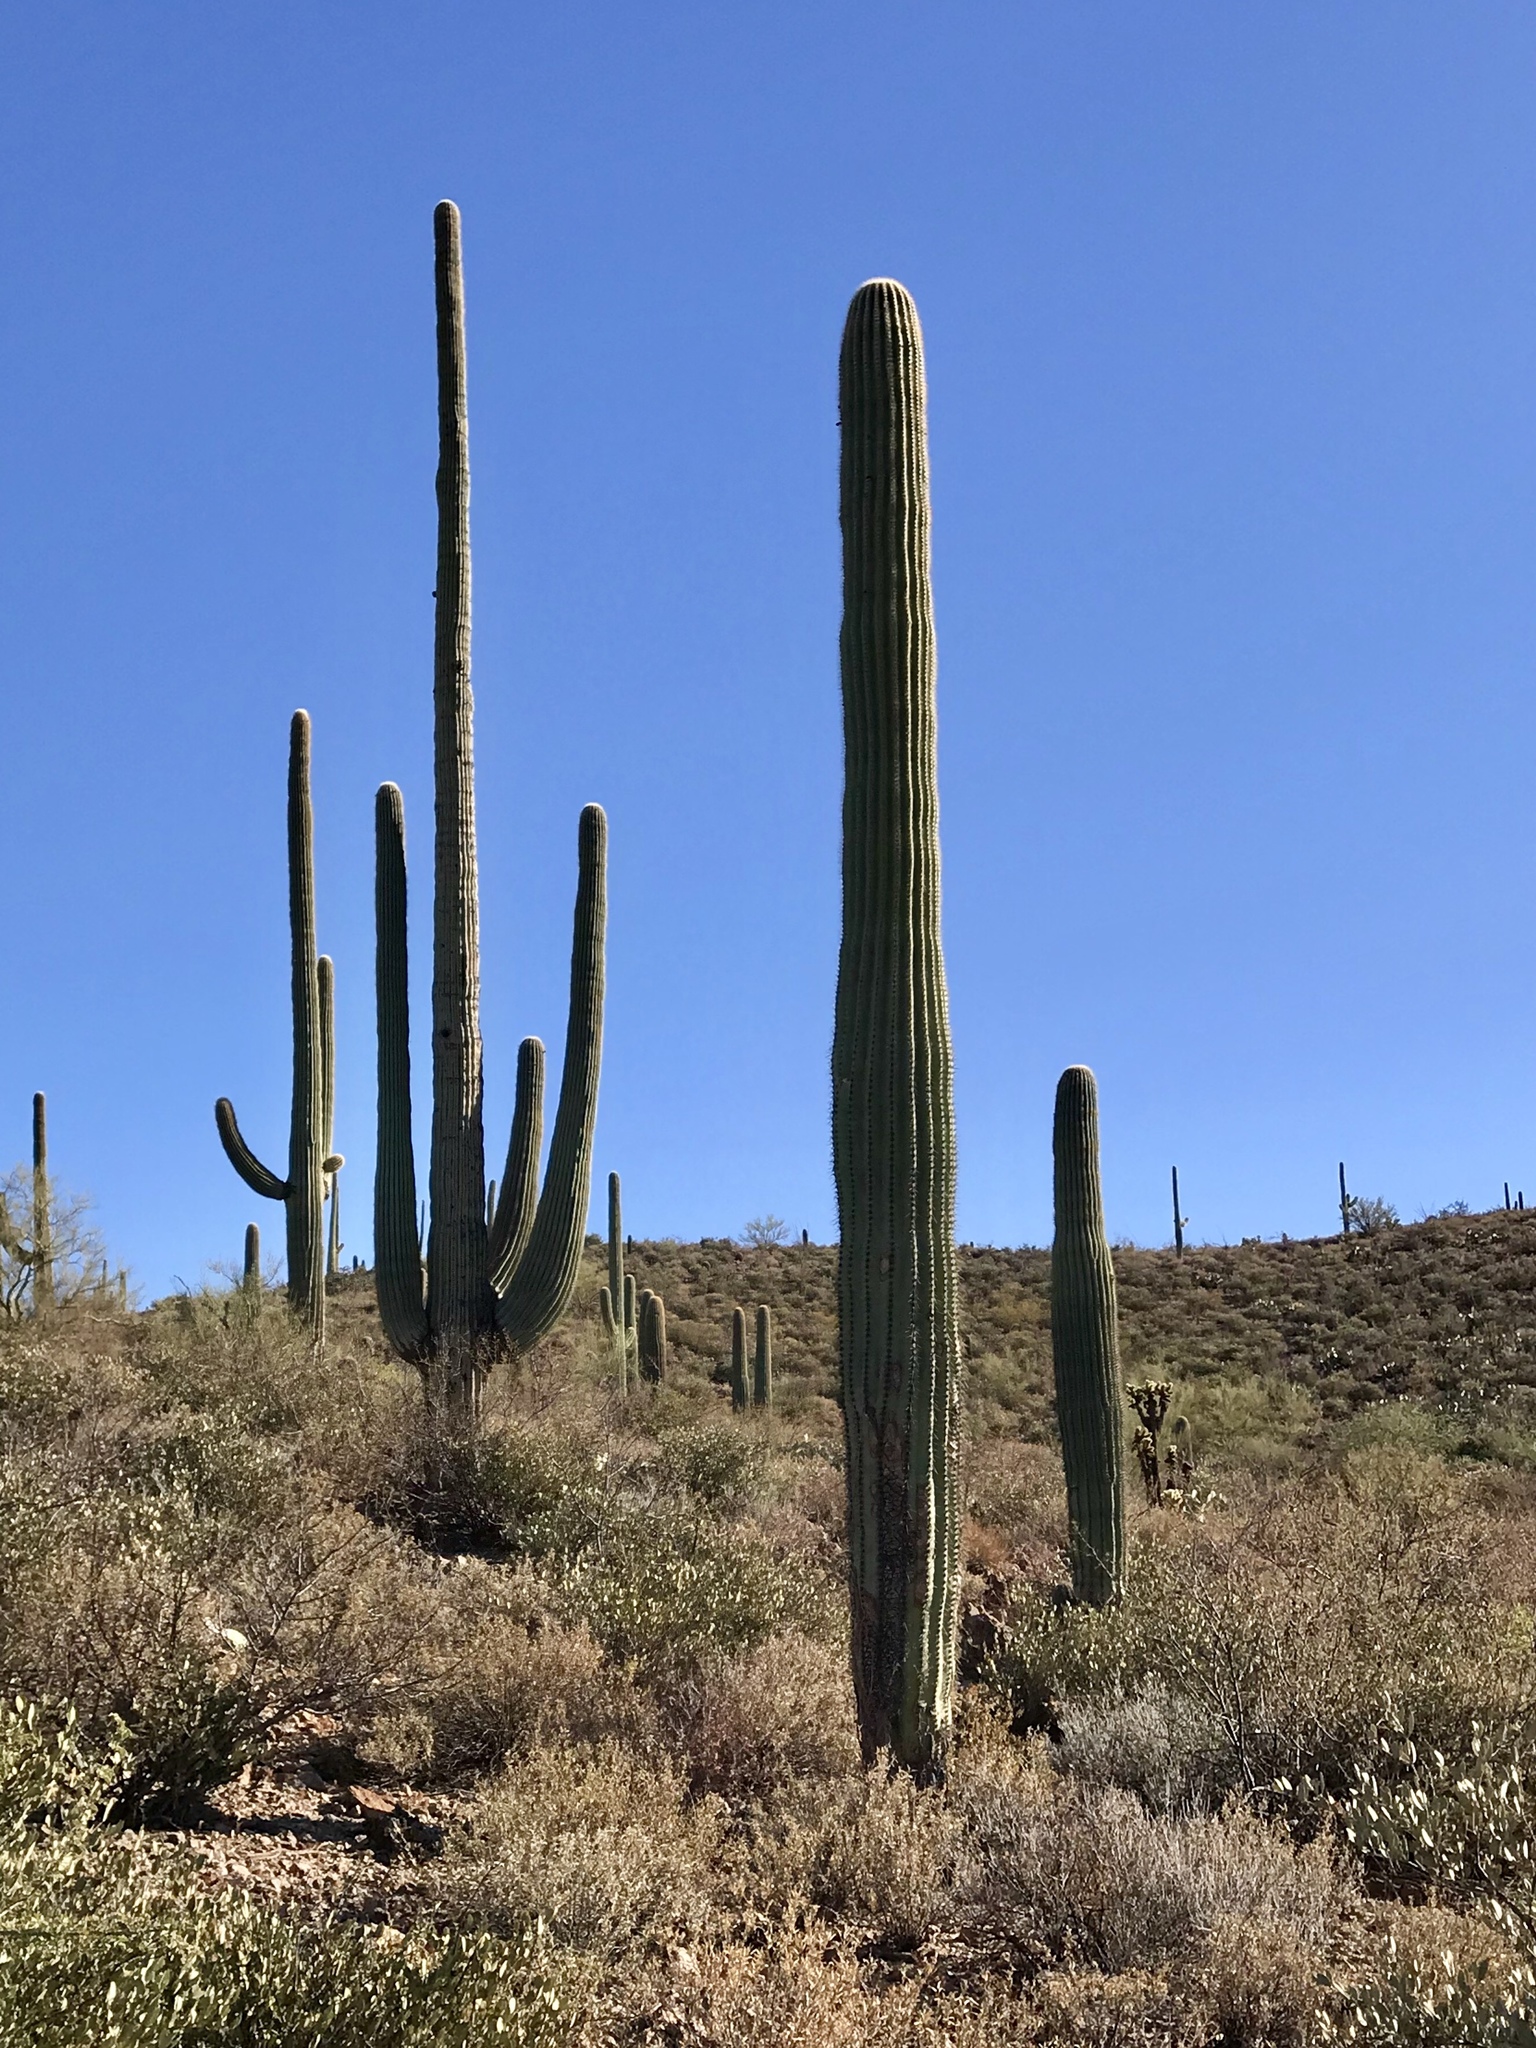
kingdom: Plantae
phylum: Tracheophyta
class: Magnoliopsida
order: Caryophyllales
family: Cactaceae
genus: Carnegiea
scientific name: Carnegiea gigantea
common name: Saguaro
